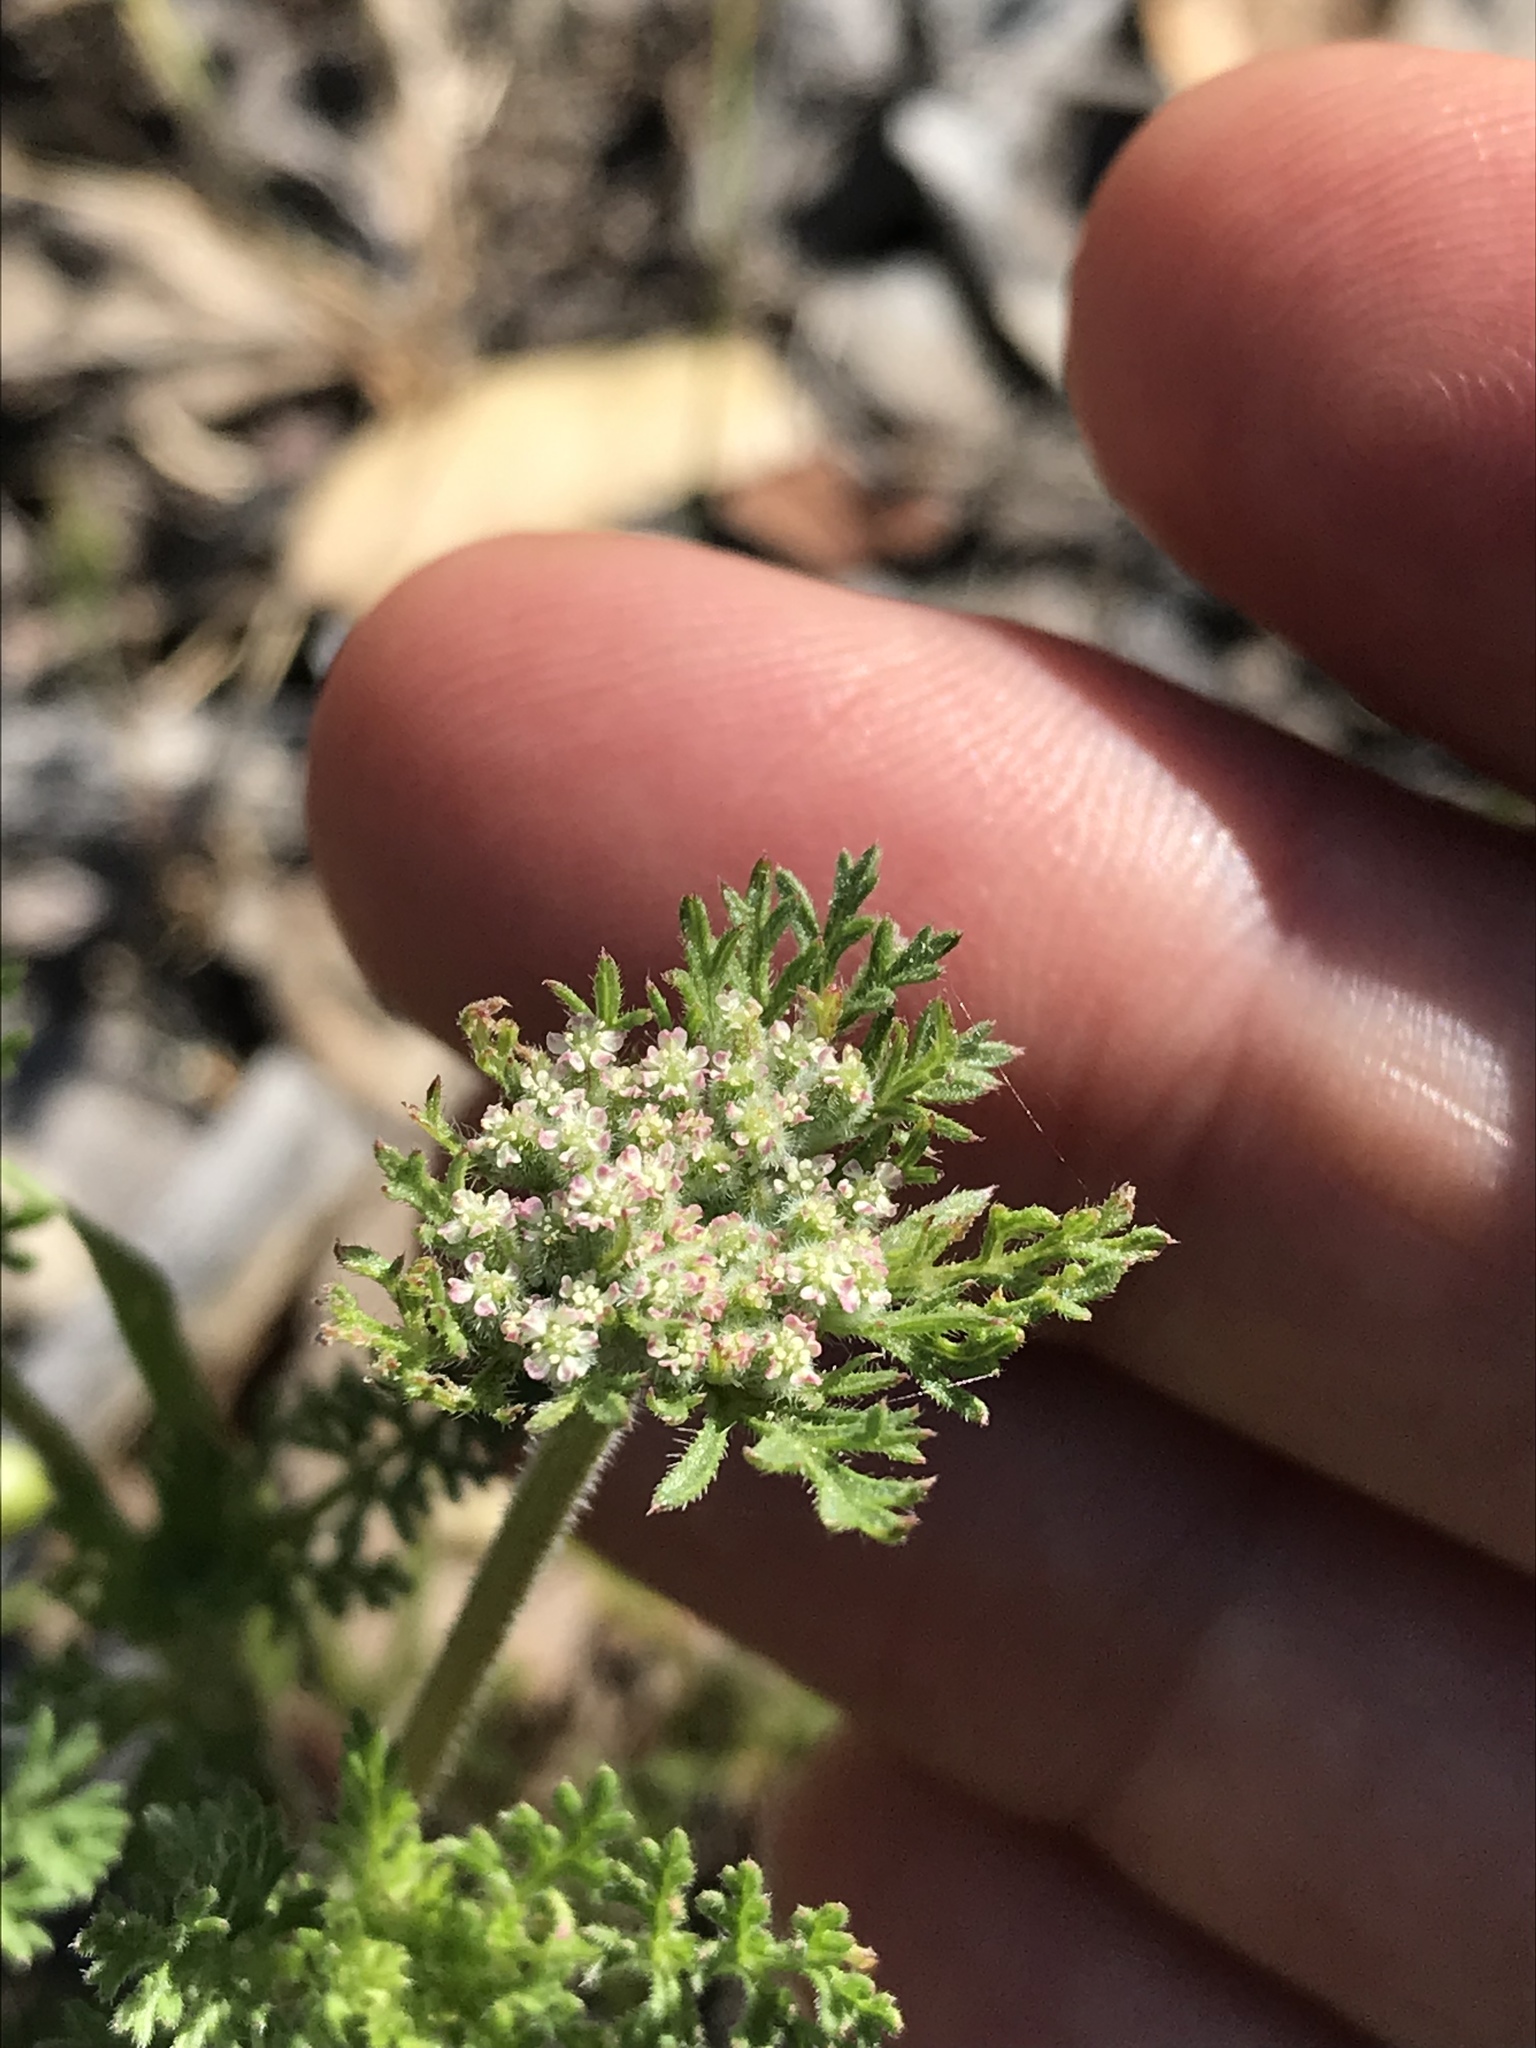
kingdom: Plantae
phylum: Tracheophyta
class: Magnoliopsida
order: Apiales
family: Apiaceae
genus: Daucus
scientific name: Daucus pusillus
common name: Southwest wild carrot
